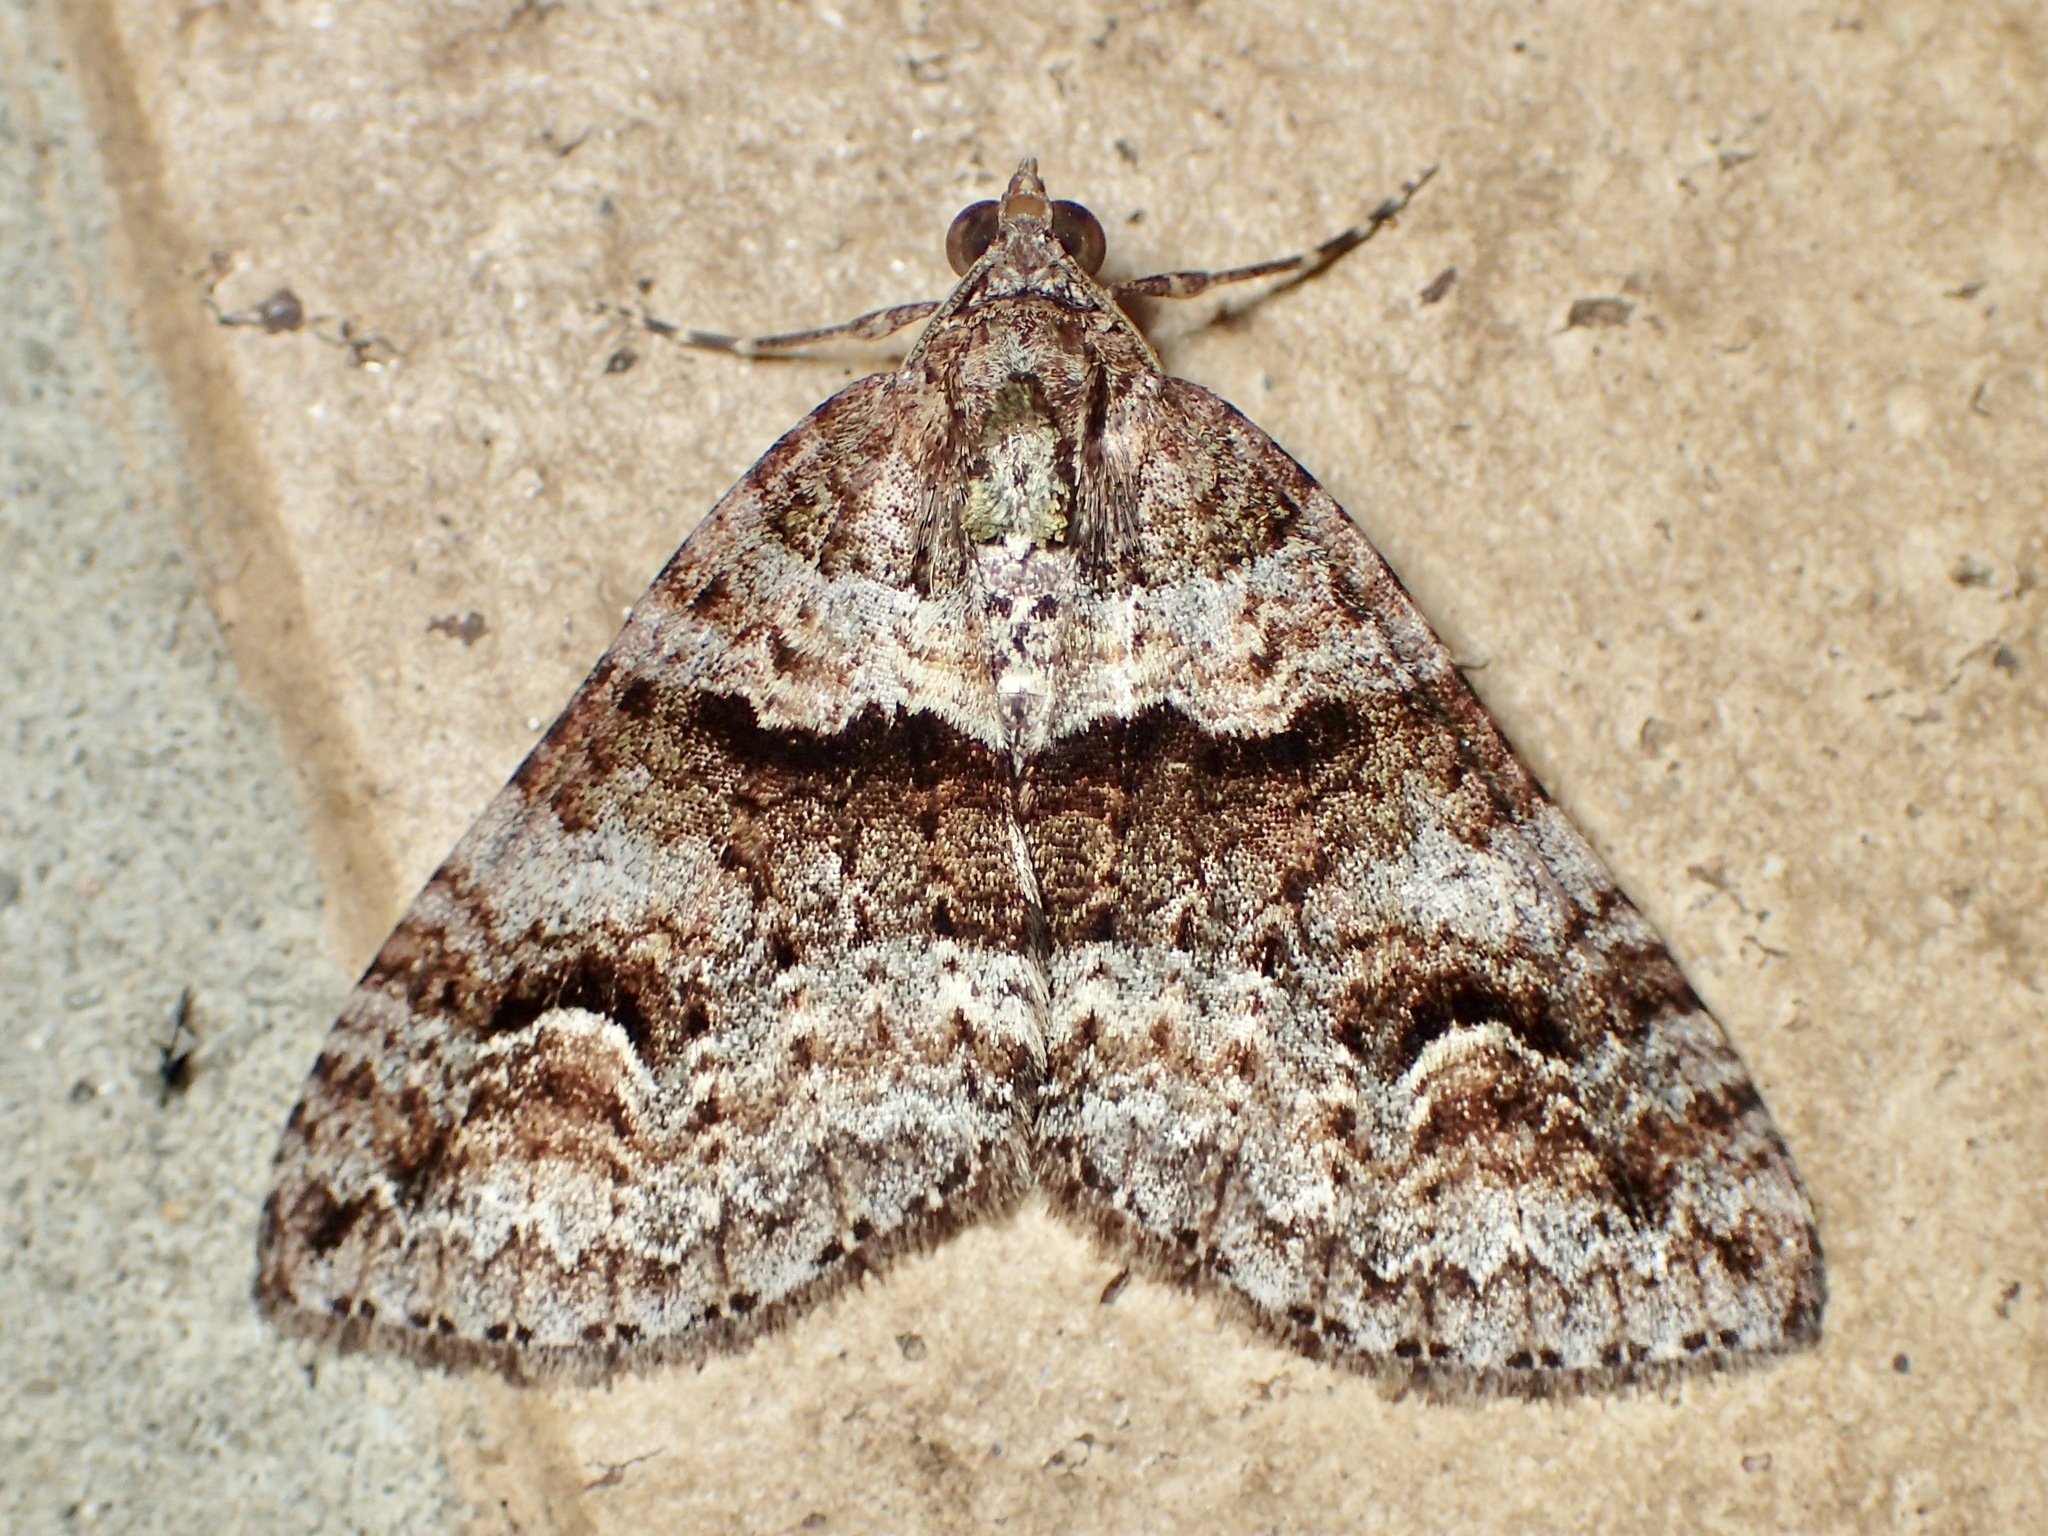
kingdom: Animalia
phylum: Arthropoda
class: Insecta
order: Lepidoptera
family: Geometridae
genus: Heterochasta
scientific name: Heterochasta conglobata
